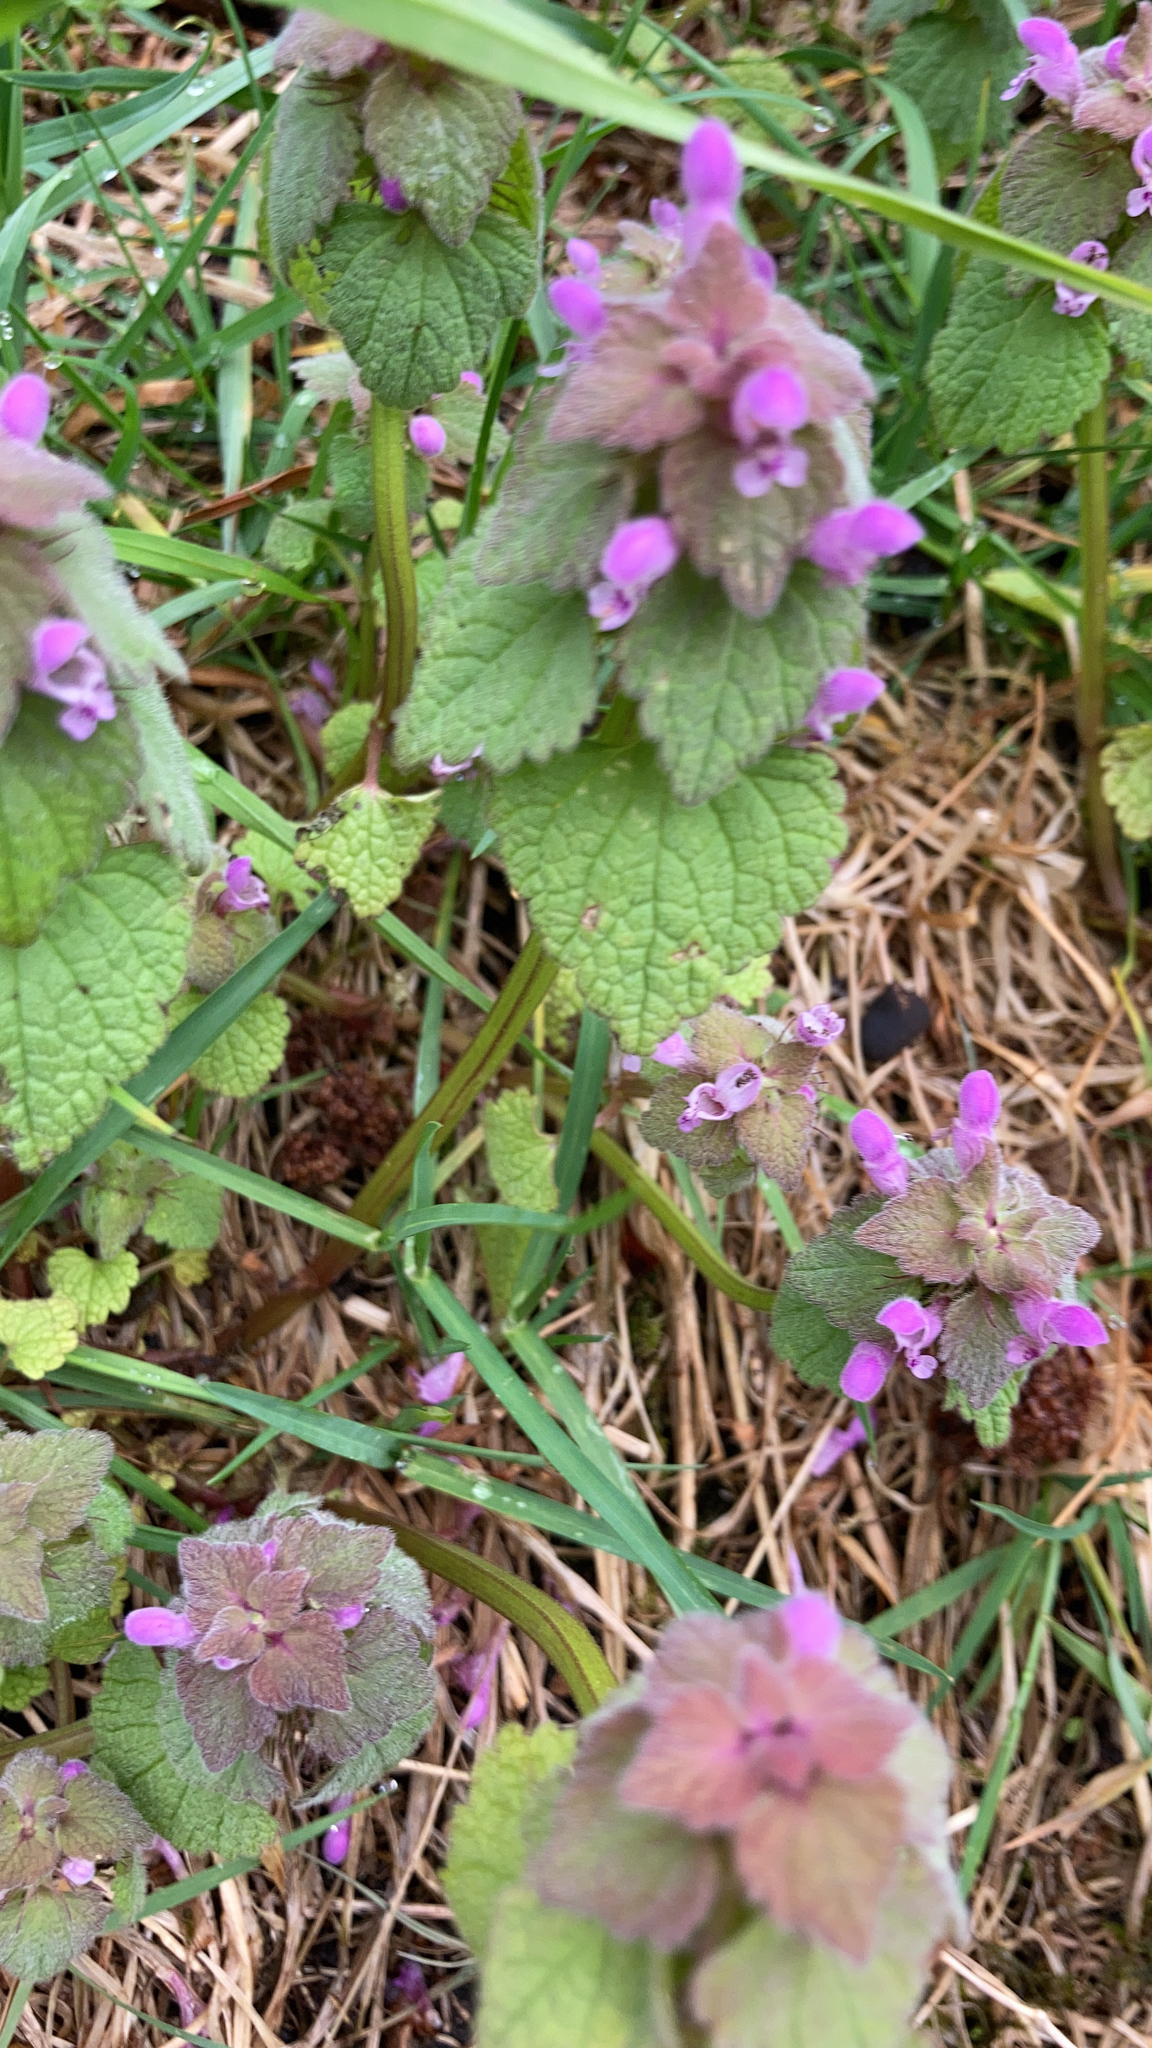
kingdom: Plantae
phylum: Tracheophyta
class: Magnoliopsida
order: Lamiales
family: Lamiaceae
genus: Lamium
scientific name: Lamium purpureum
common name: Red dead-nettle
